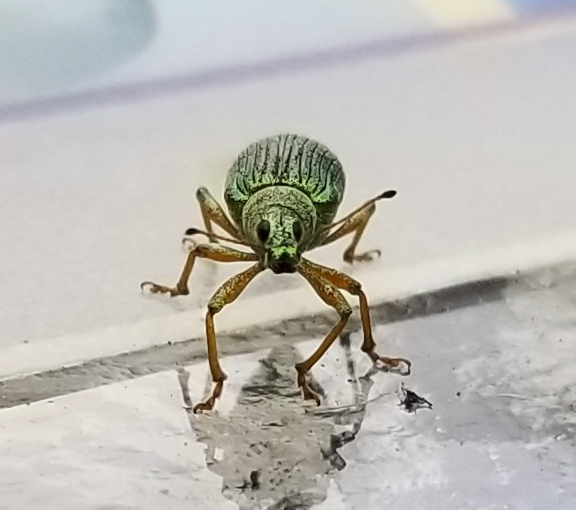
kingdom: Animalia
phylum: Arthropoda
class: Insecta
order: Coleoptera
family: Curculionidae
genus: Polydrusus
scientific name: Polydrusus formosus
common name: Weevil
